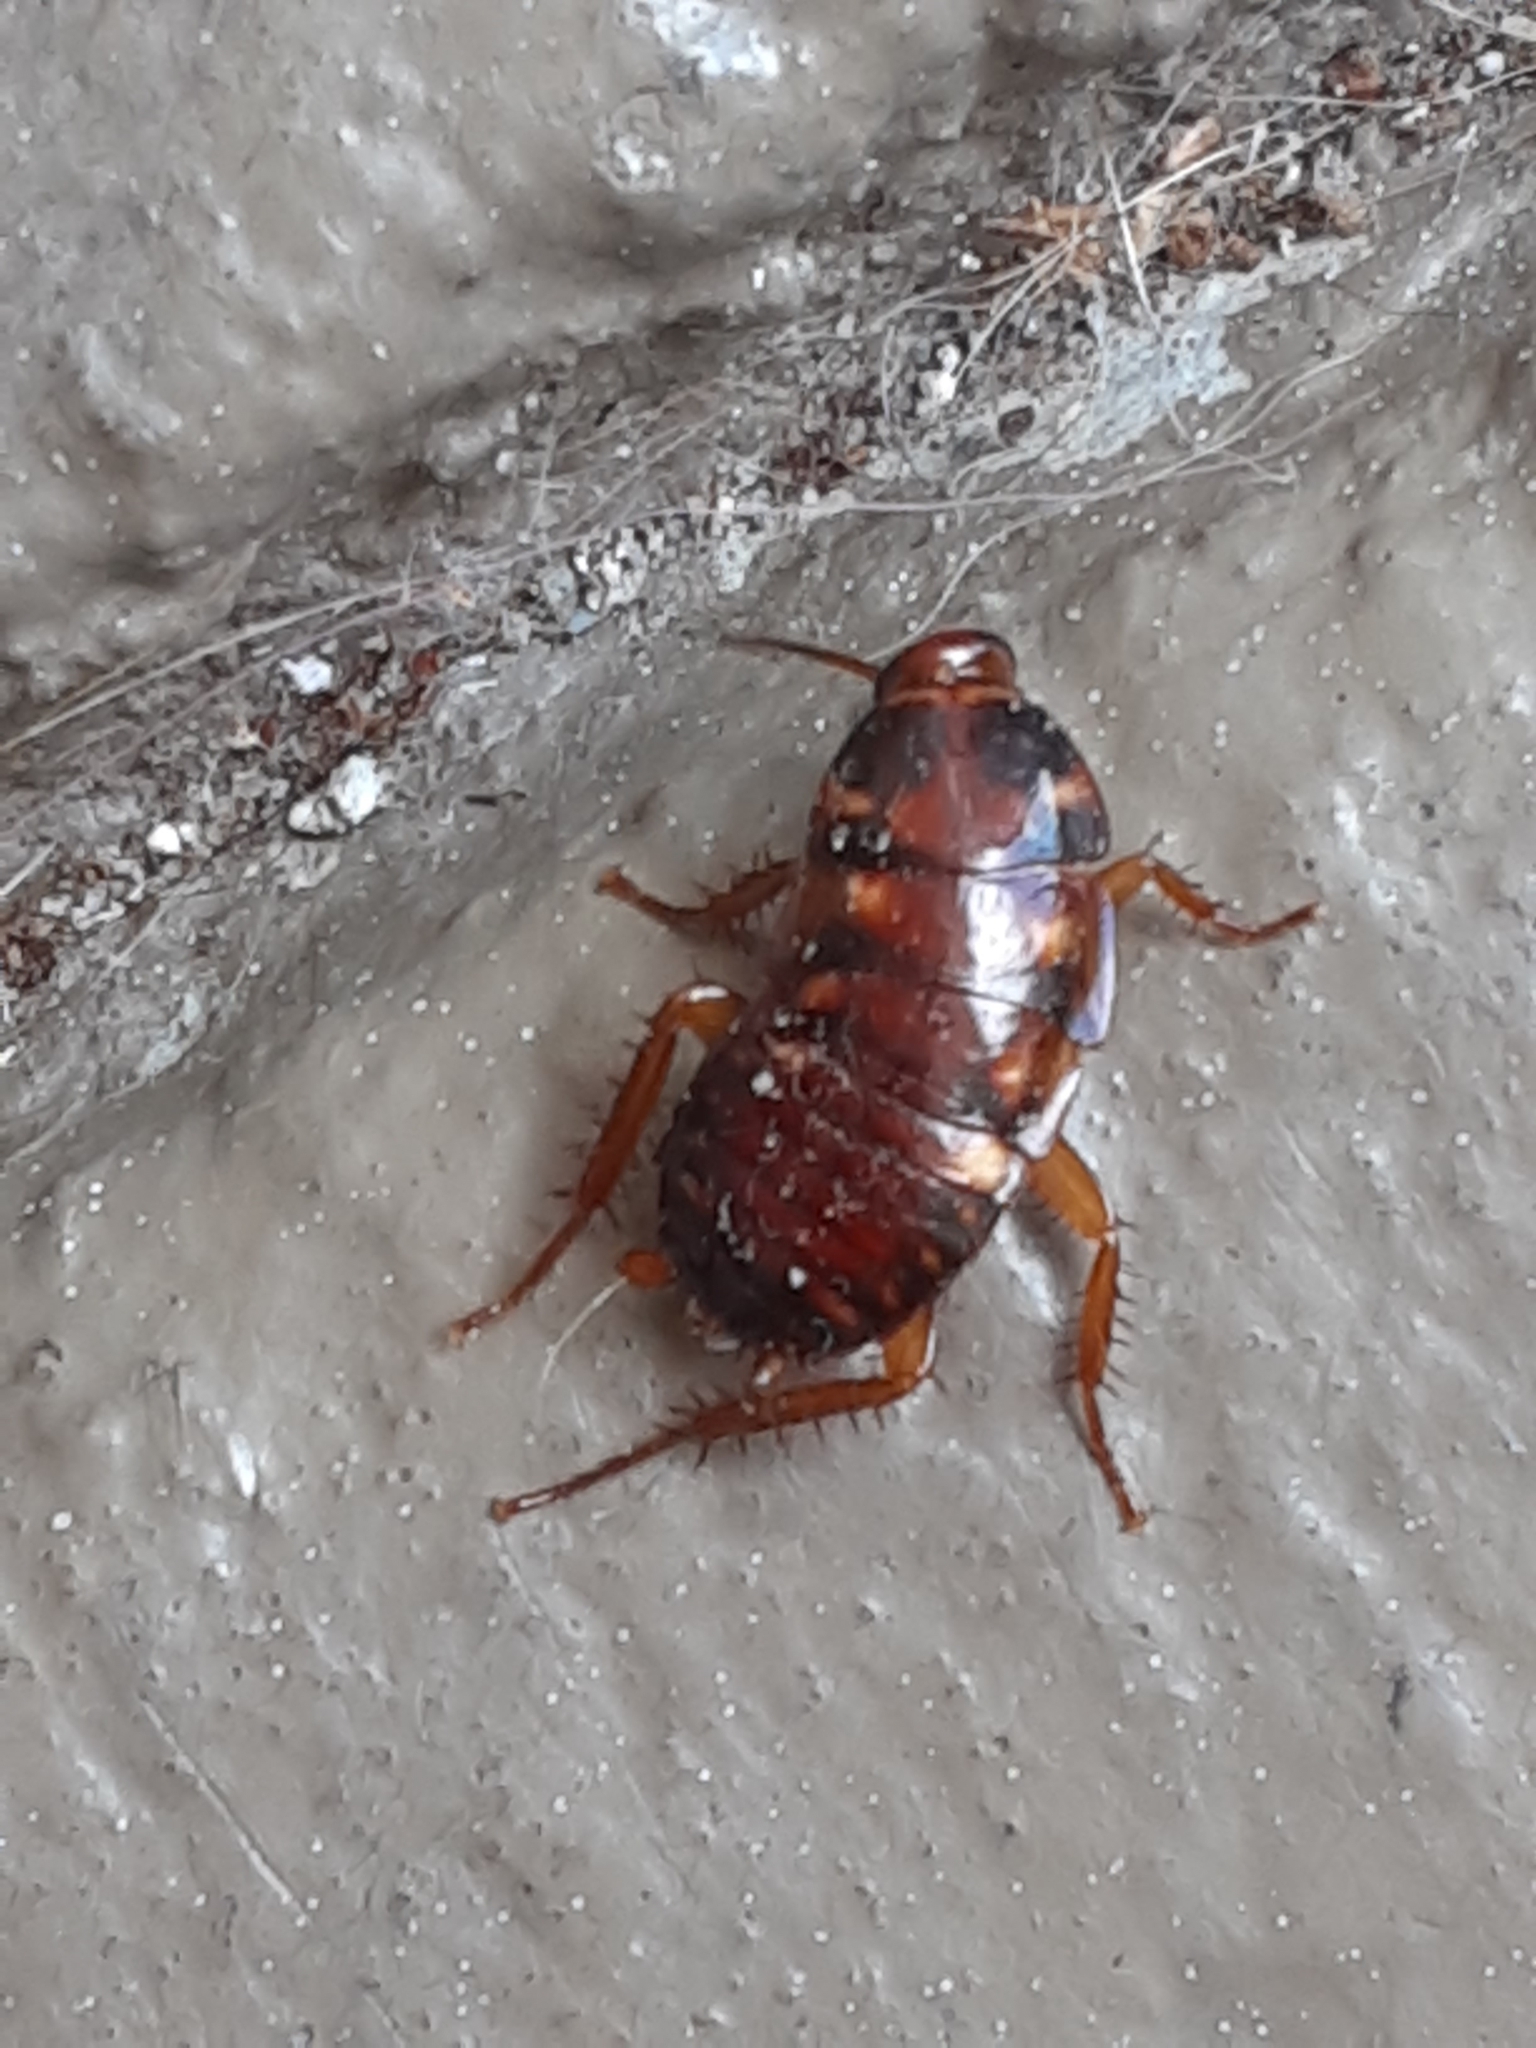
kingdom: Animalia
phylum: Arthropoda
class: Insecta
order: Blattodea
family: Blattidae
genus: Periplaneta
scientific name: Periplaneta australasiae
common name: Australian cockroach
